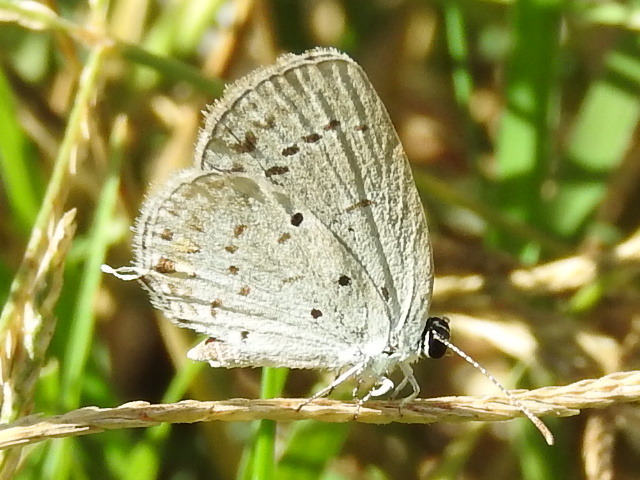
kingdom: Animalia
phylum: Arthropoda
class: Insecta
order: Lepidoptera
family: Lycaenidae
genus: Elkalyce
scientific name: Elkalyce texana
